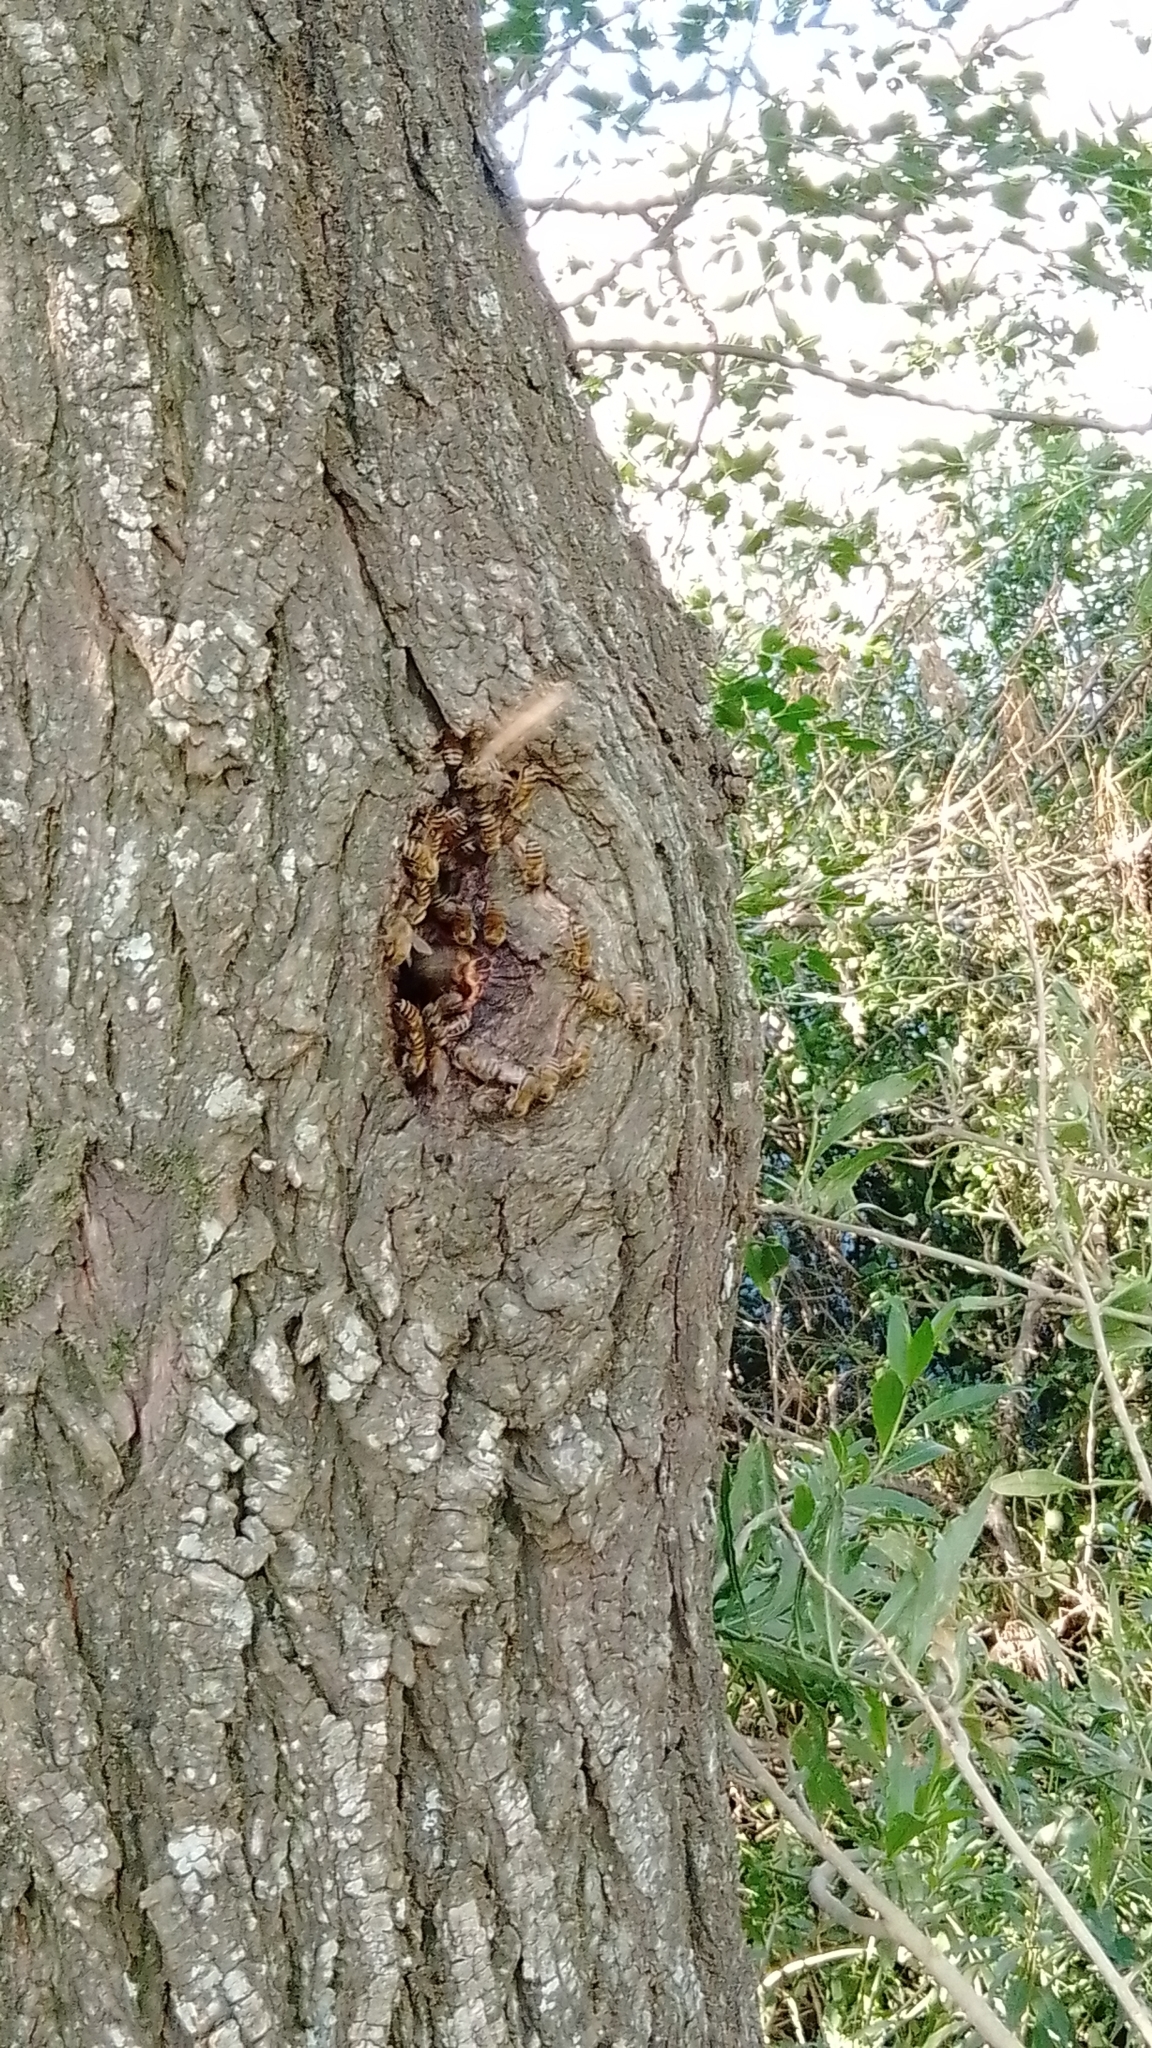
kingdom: Animalia
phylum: Arthropoda
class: Insecta
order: Hymenoptera
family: Apidae
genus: Apis
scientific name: Apis mellifera
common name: Honey bee
